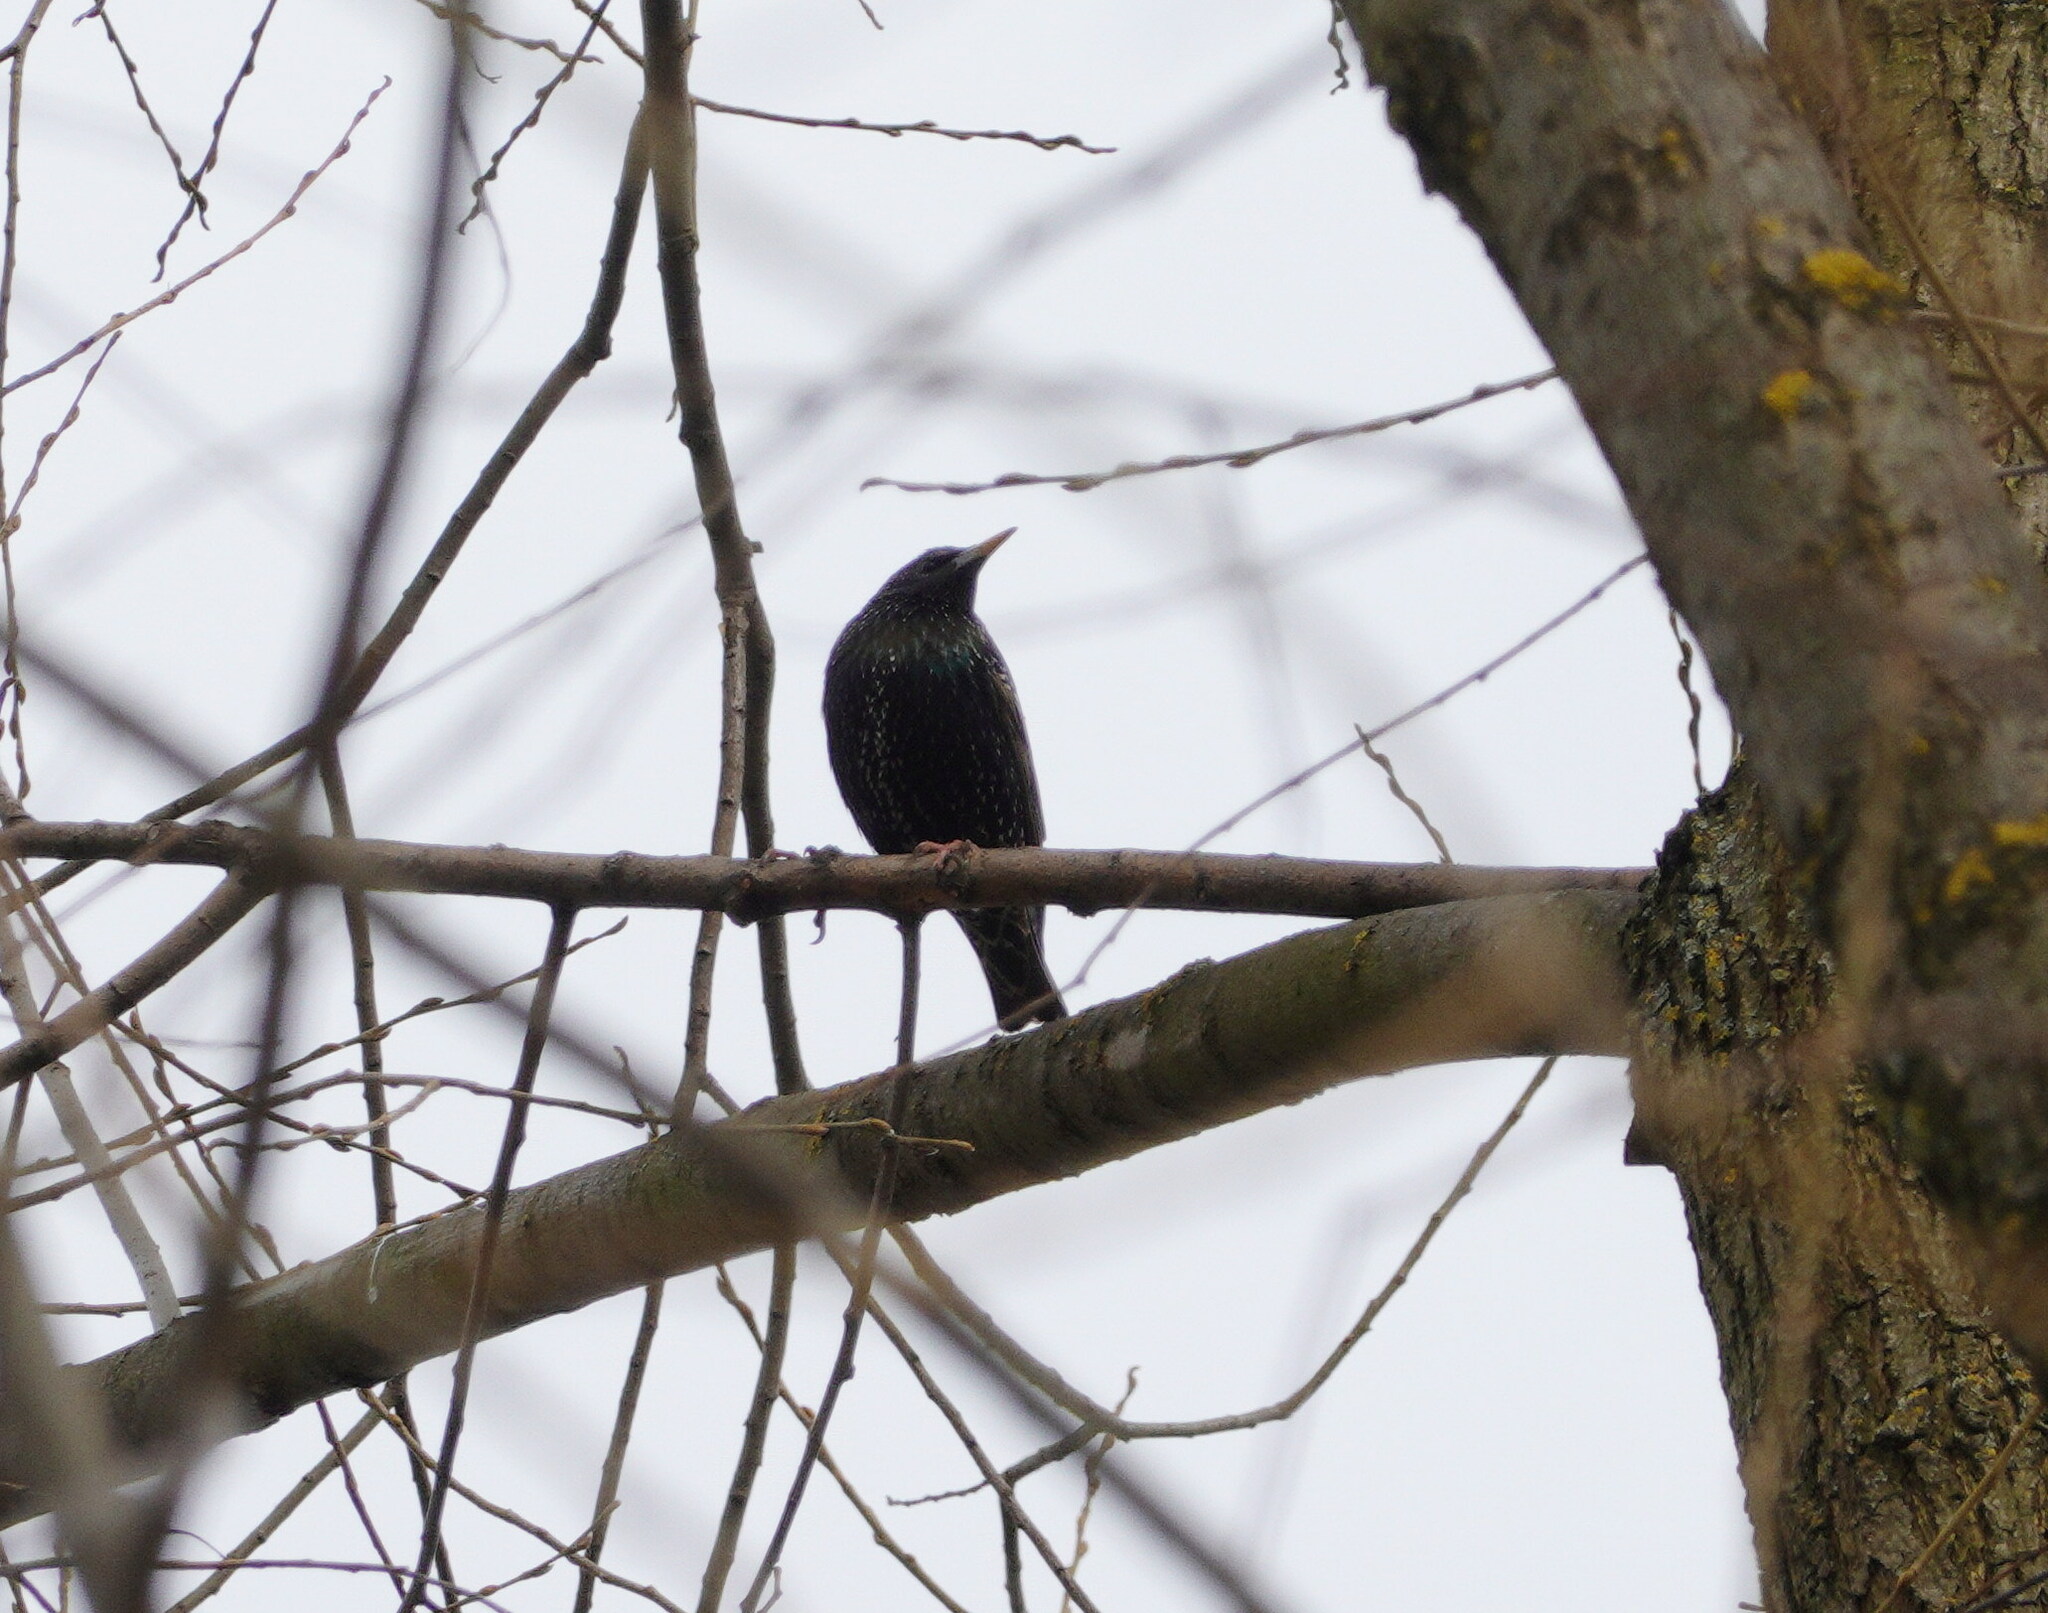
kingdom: Animalia
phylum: Chordata
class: Aves
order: Passeriformes
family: Sturnidae
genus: Sturnus
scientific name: Sturnus vulgaris
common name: Common starling
